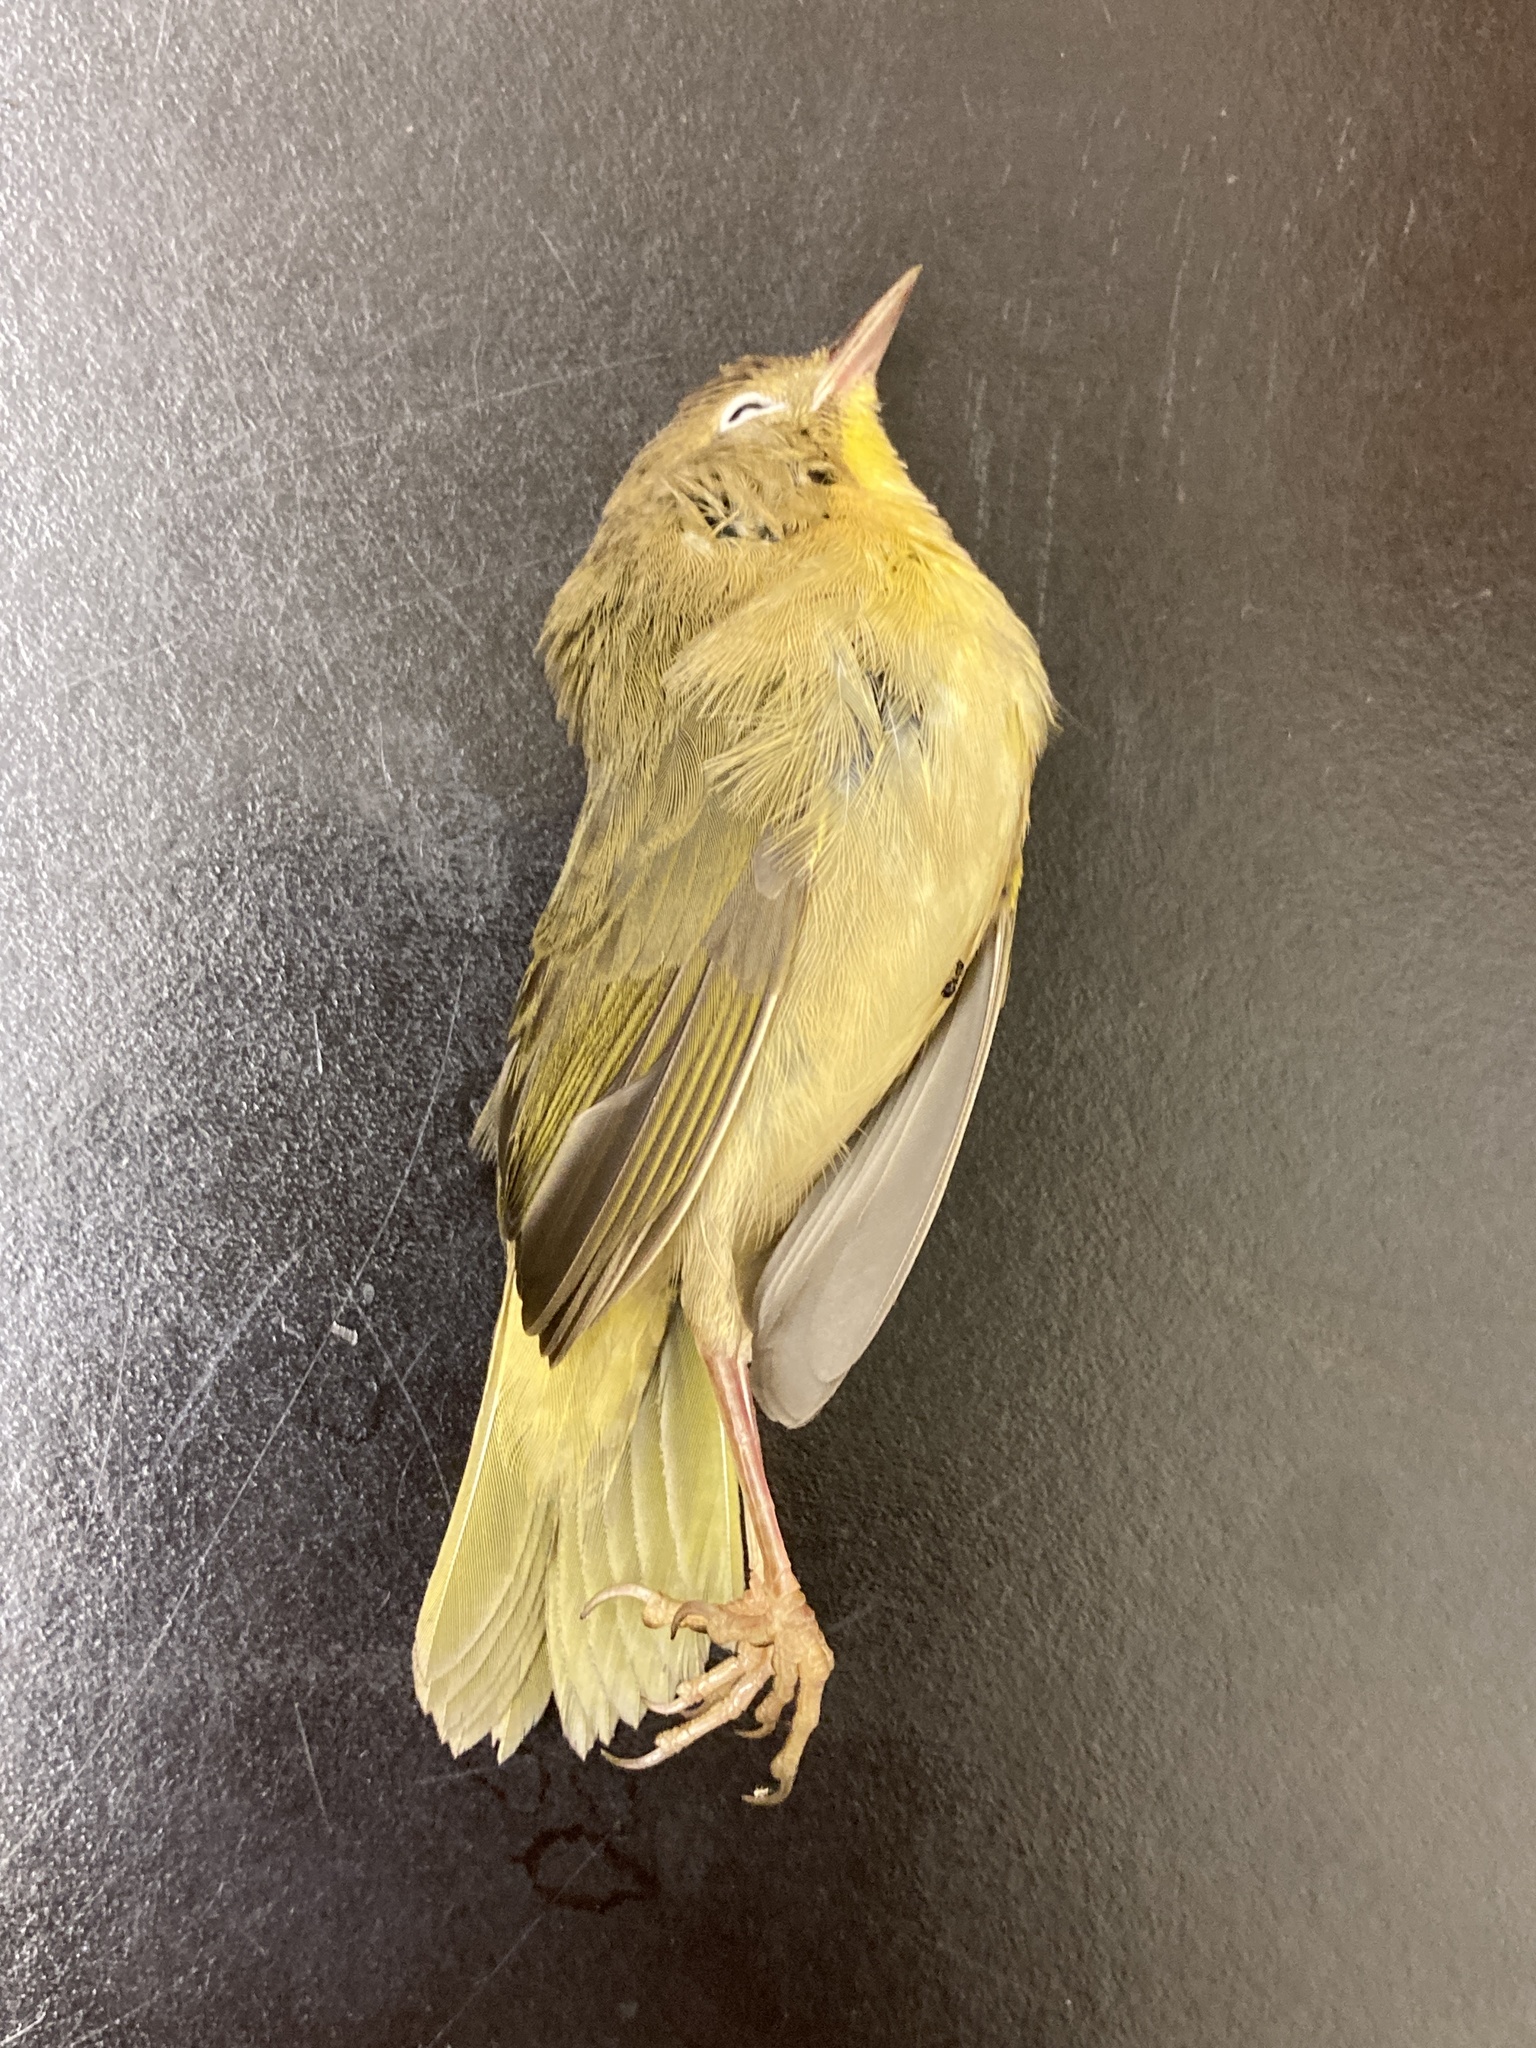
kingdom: Animalia
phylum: Chordata
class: Aves
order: Passeriformes
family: Parulidae
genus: Geothlypis
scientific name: Geothlypis trichas
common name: Common yellowthroat
